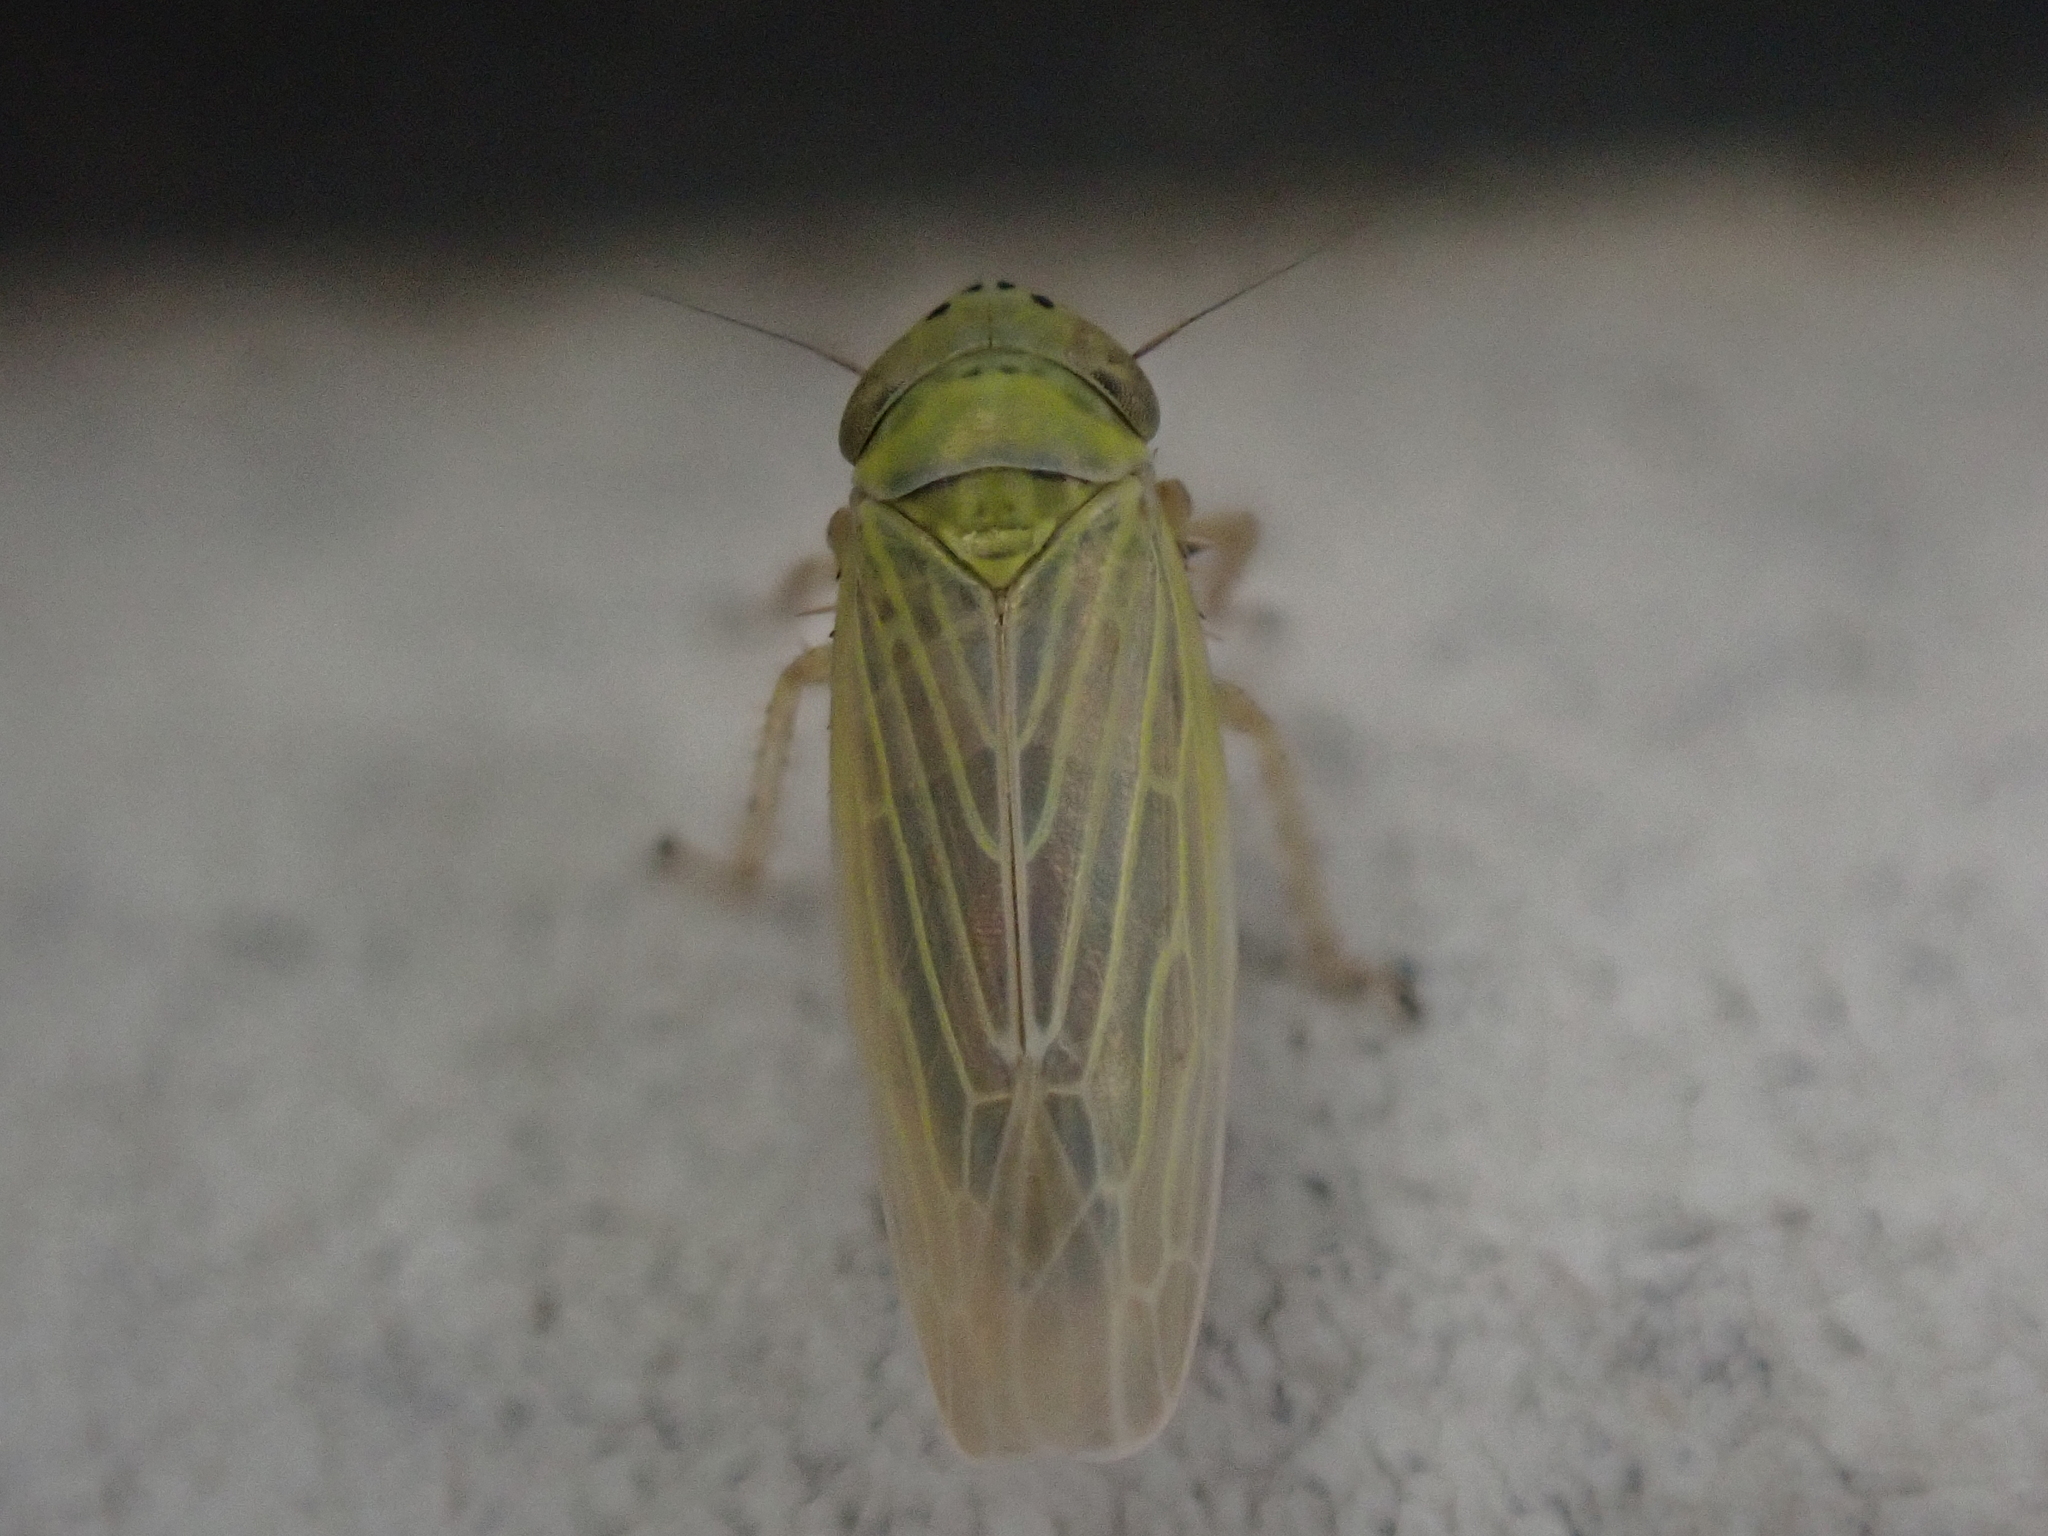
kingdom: Animalia
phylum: Arthropoda
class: Insecta
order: Hemiptera
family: Cicadellidae
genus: Graminella
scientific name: Graminella nigrifrons
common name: Blackfaced leafhopper
